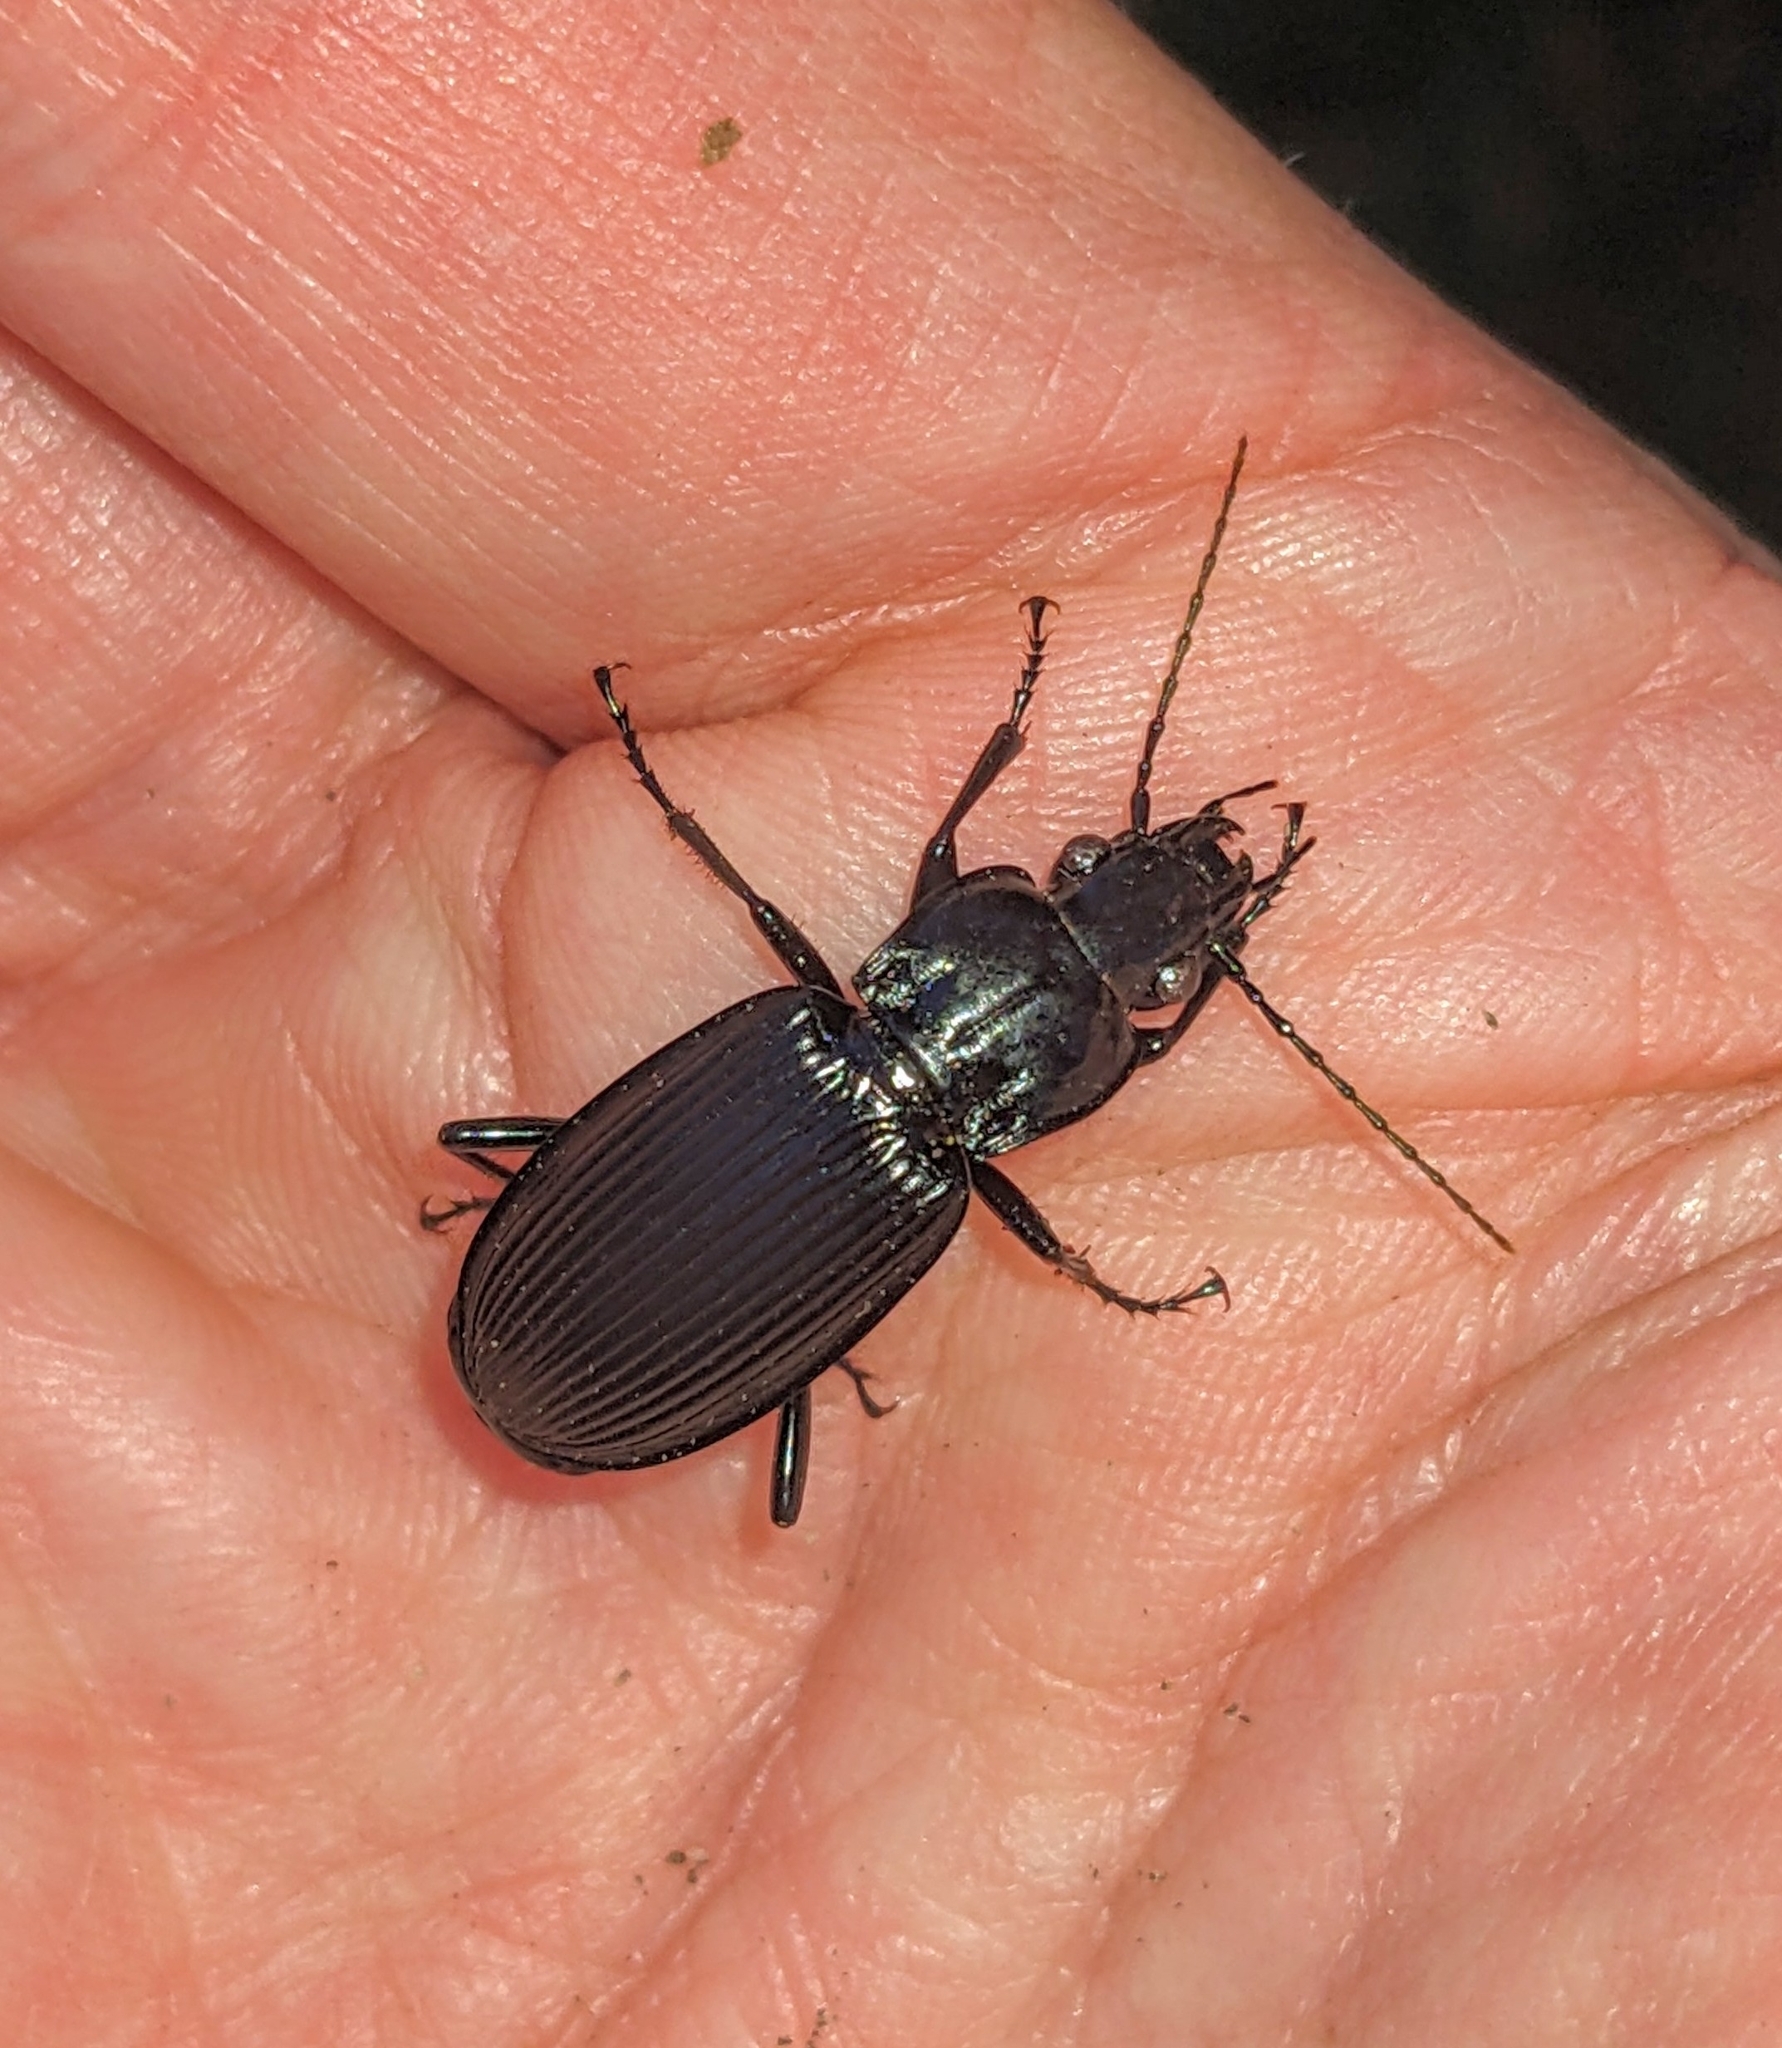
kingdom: Animalia
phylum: Arthropoda
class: Insecta
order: Coleoptera
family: Carabidae
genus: Pterostichus
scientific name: Pterostichus niger
